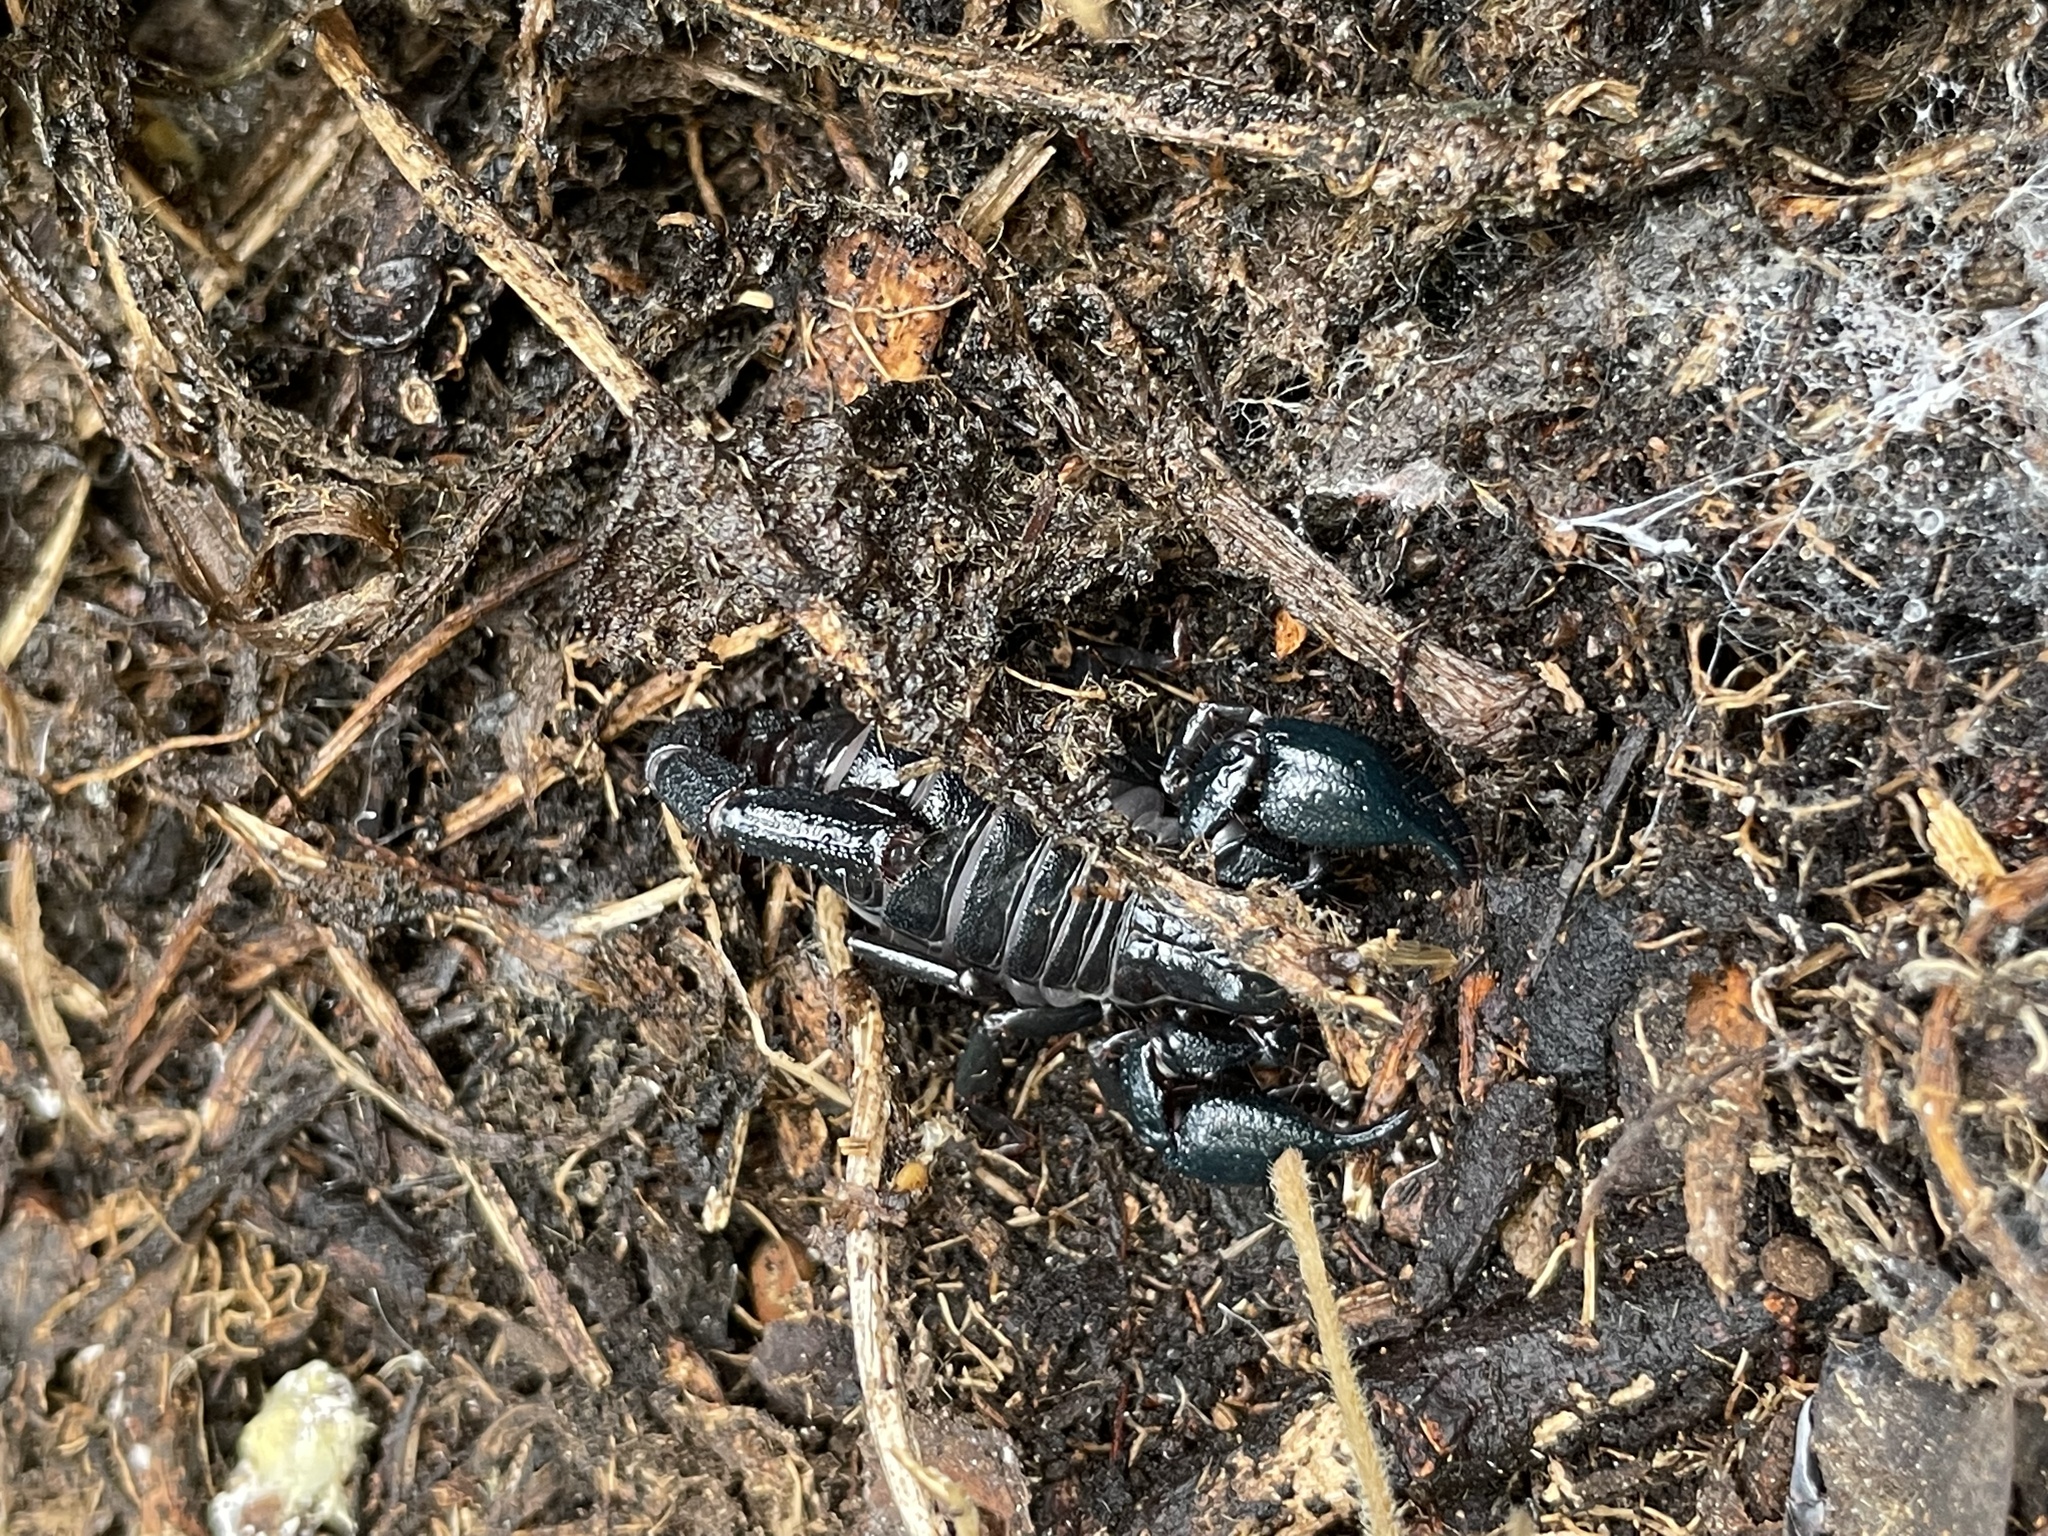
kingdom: Animalia
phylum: Arthropoda
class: Arachnida
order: Scorpiones
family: Chactidae
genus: Teuthraustes
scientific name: Teuthraustes atramentarius
